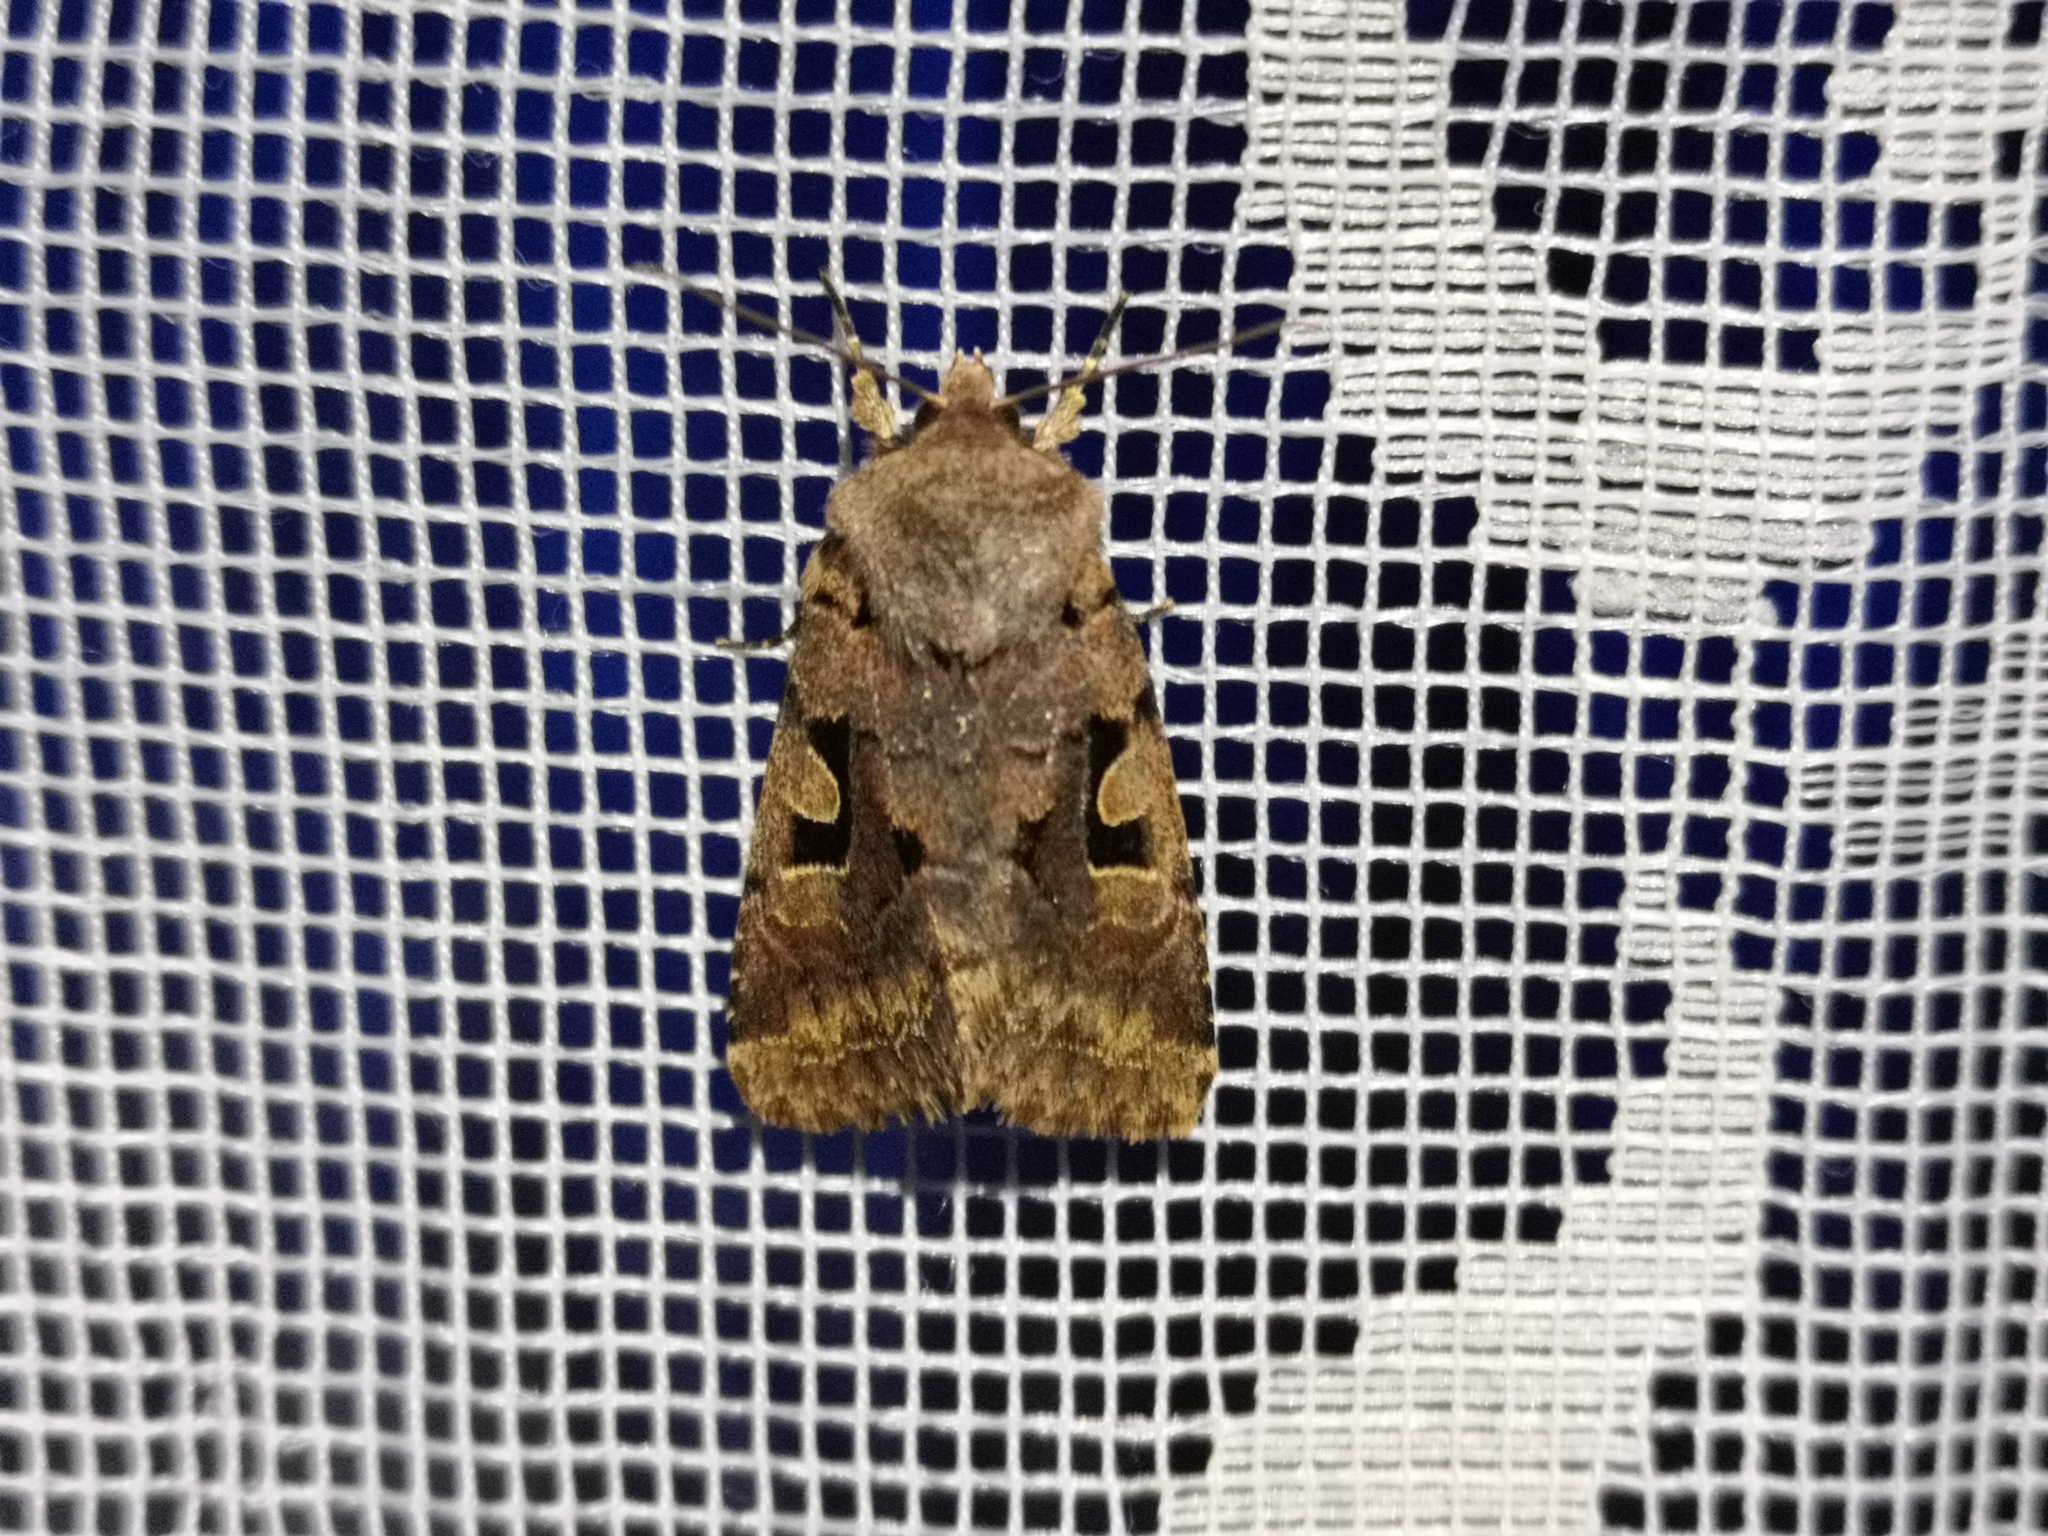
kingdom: Animalia
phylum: Arthropoda
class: Insecta
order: Lepidoptera
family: Noctuidae
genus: Orthosia
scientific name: Orthosia gothica
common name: Hebrew character
